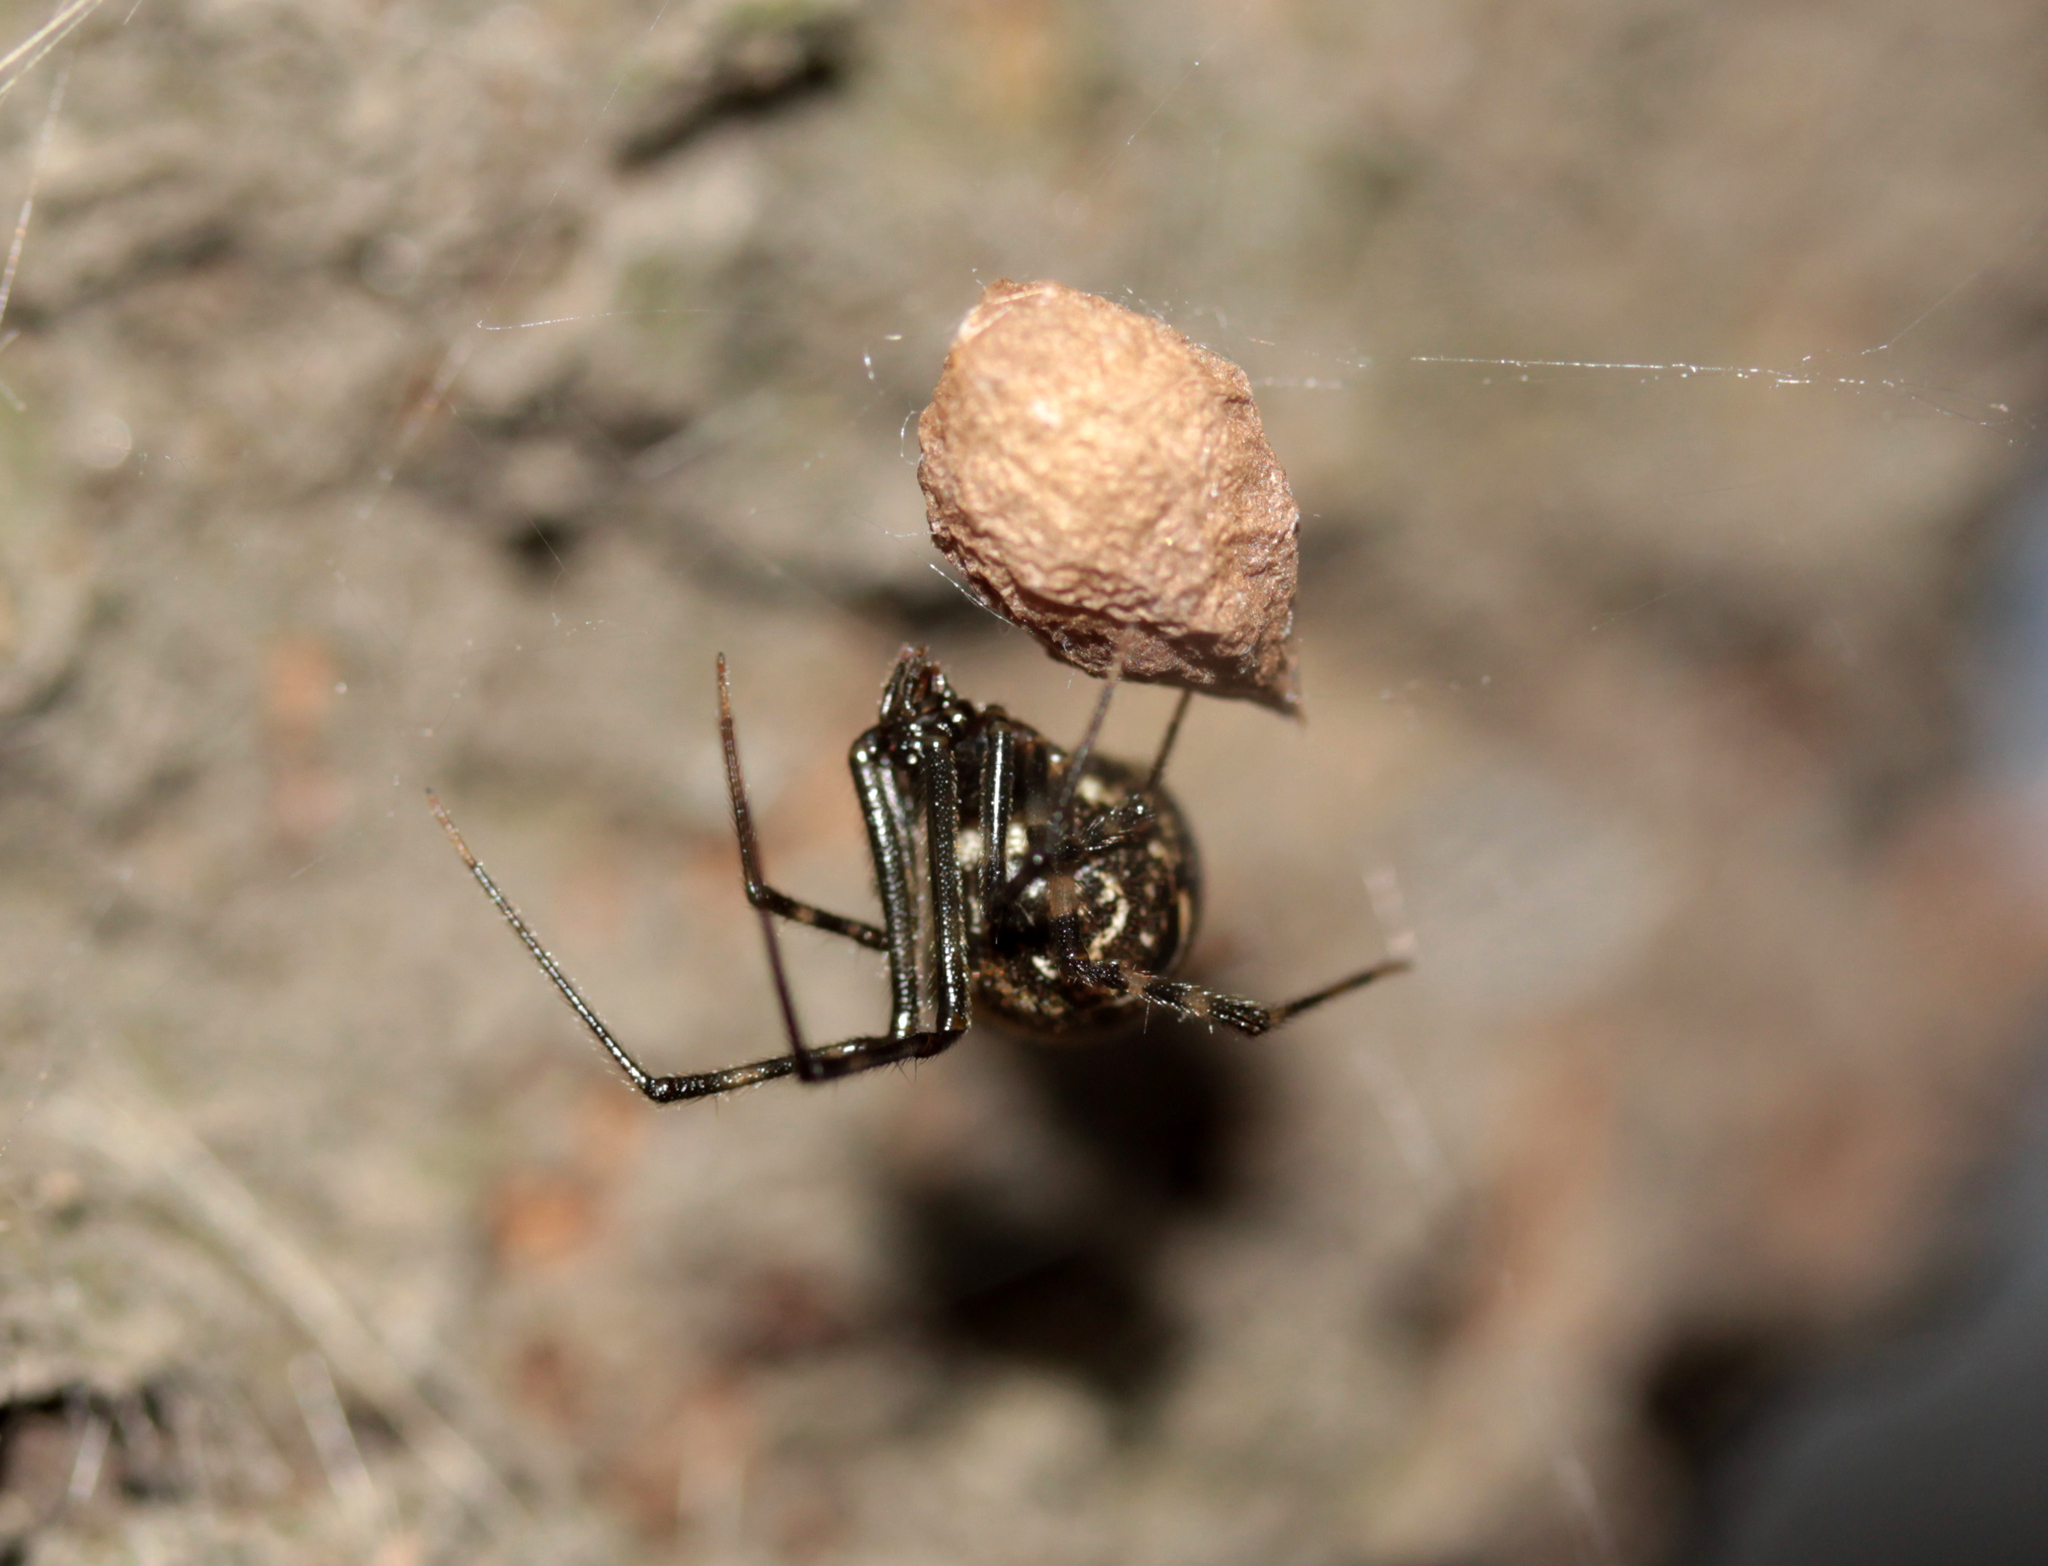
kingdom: Animalia
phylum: Arthropoda
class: Arachnida
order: Araneae
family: Theridiidae
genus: Parasteatoda
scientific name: Parasteatoda tepidariorum
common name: Common house spider
